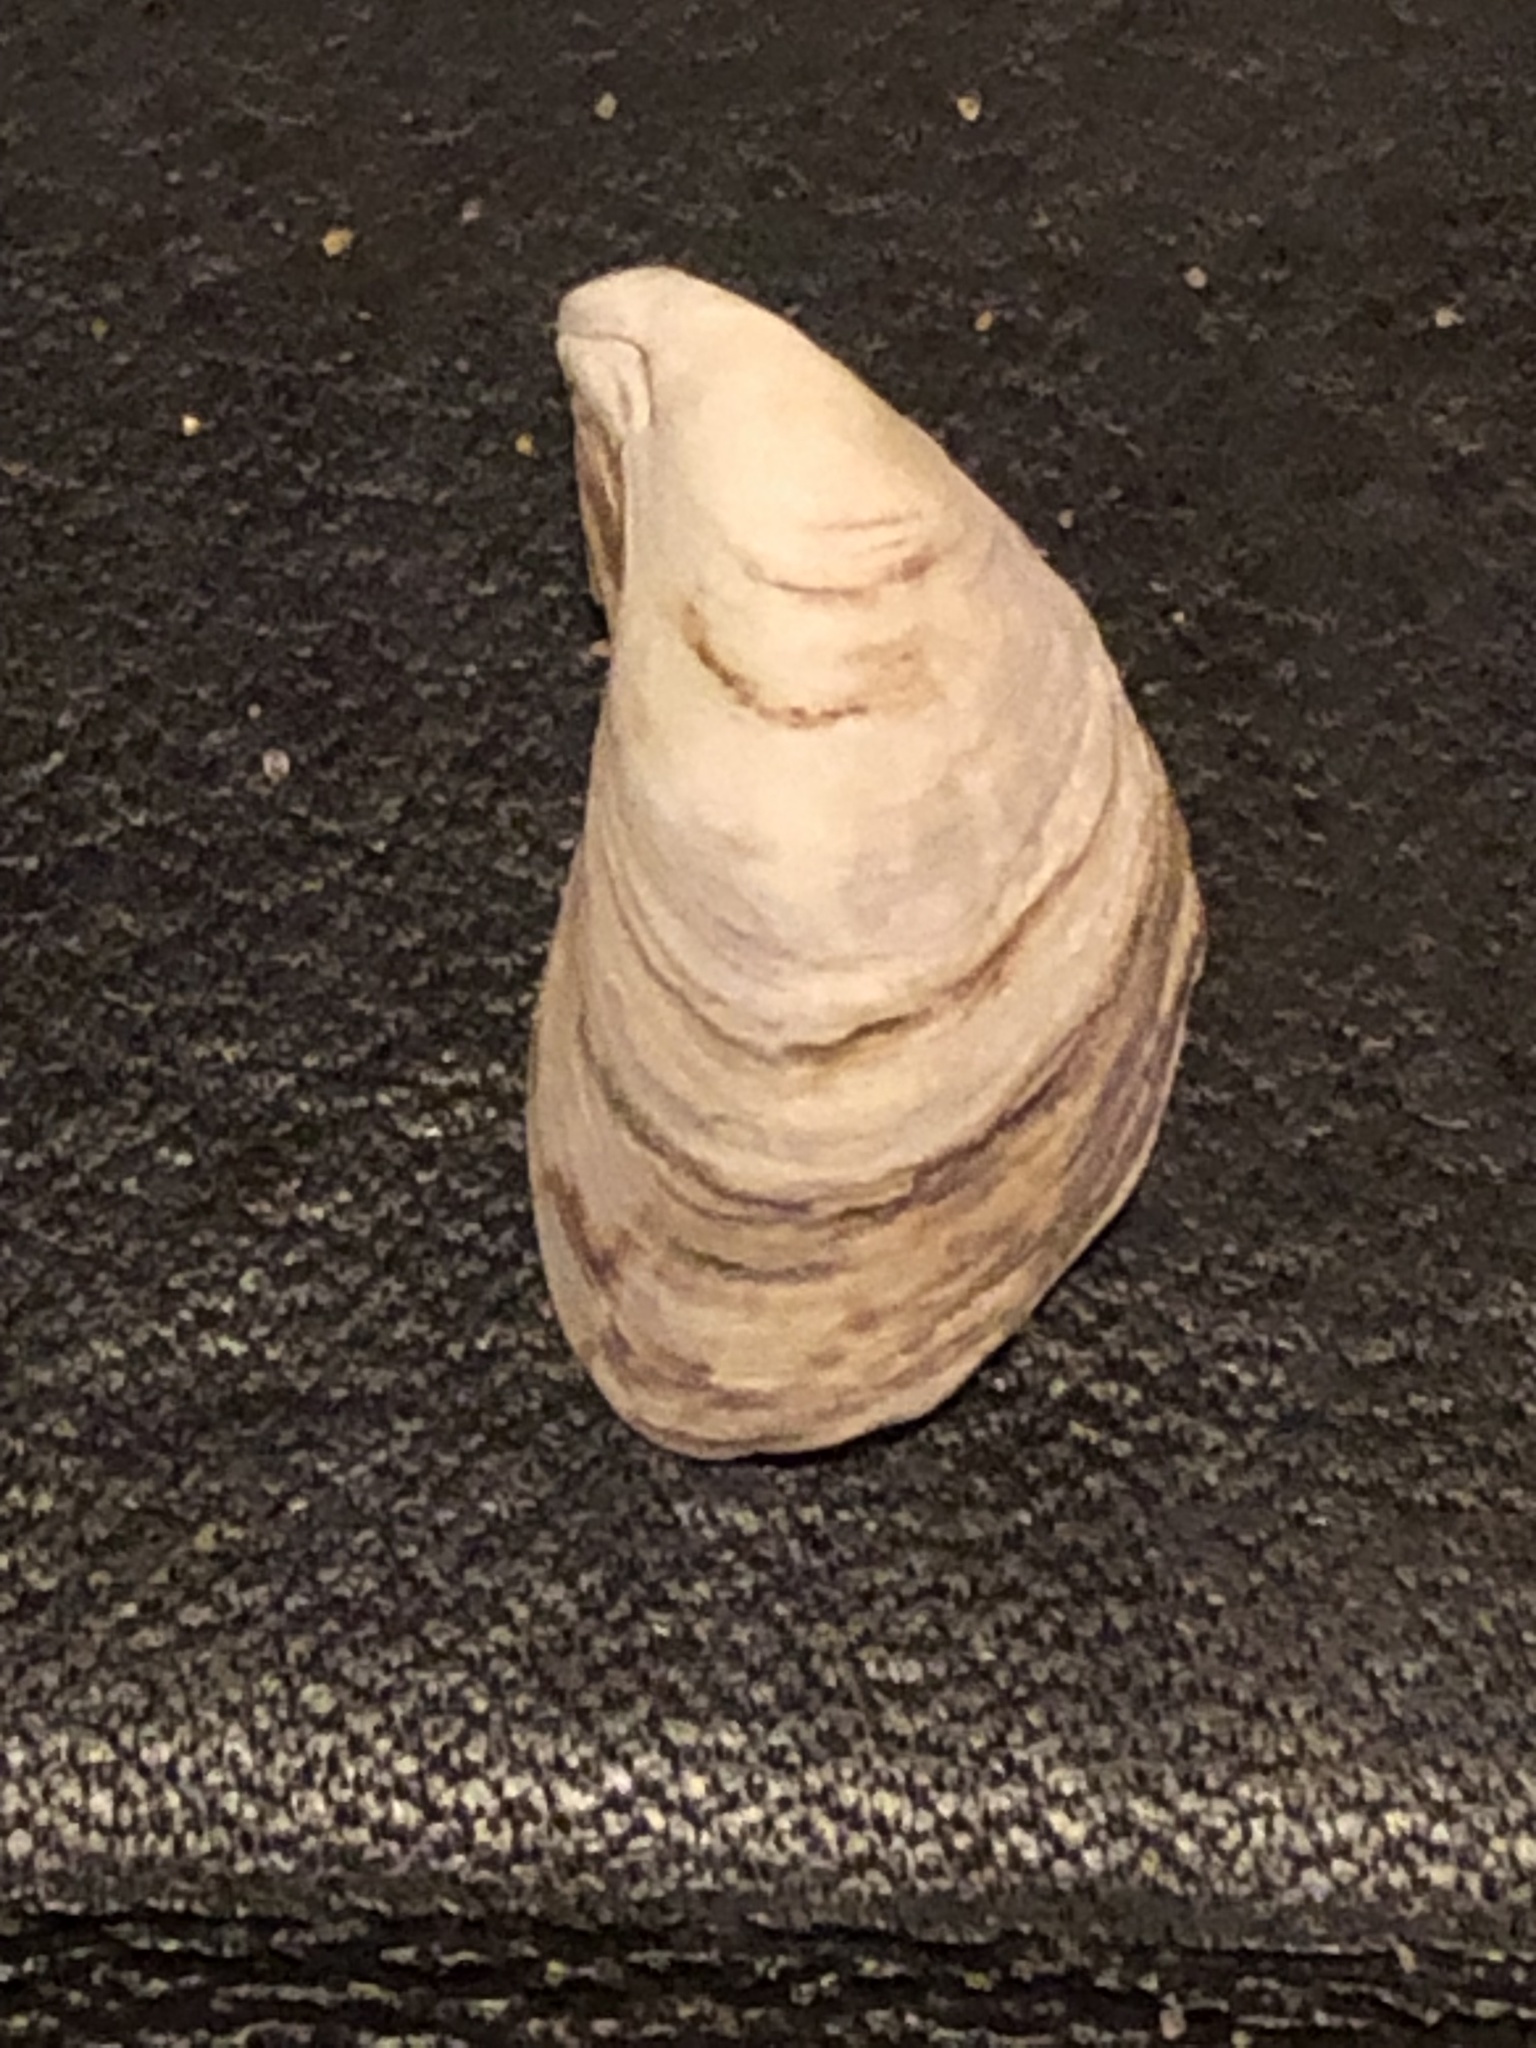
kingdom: Animalia
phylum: Mollusca
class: Bivalvia
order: Myida
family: Dreissenidae
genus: Dreissena
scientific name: Dreissena bugensis
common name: Quagga mussel
